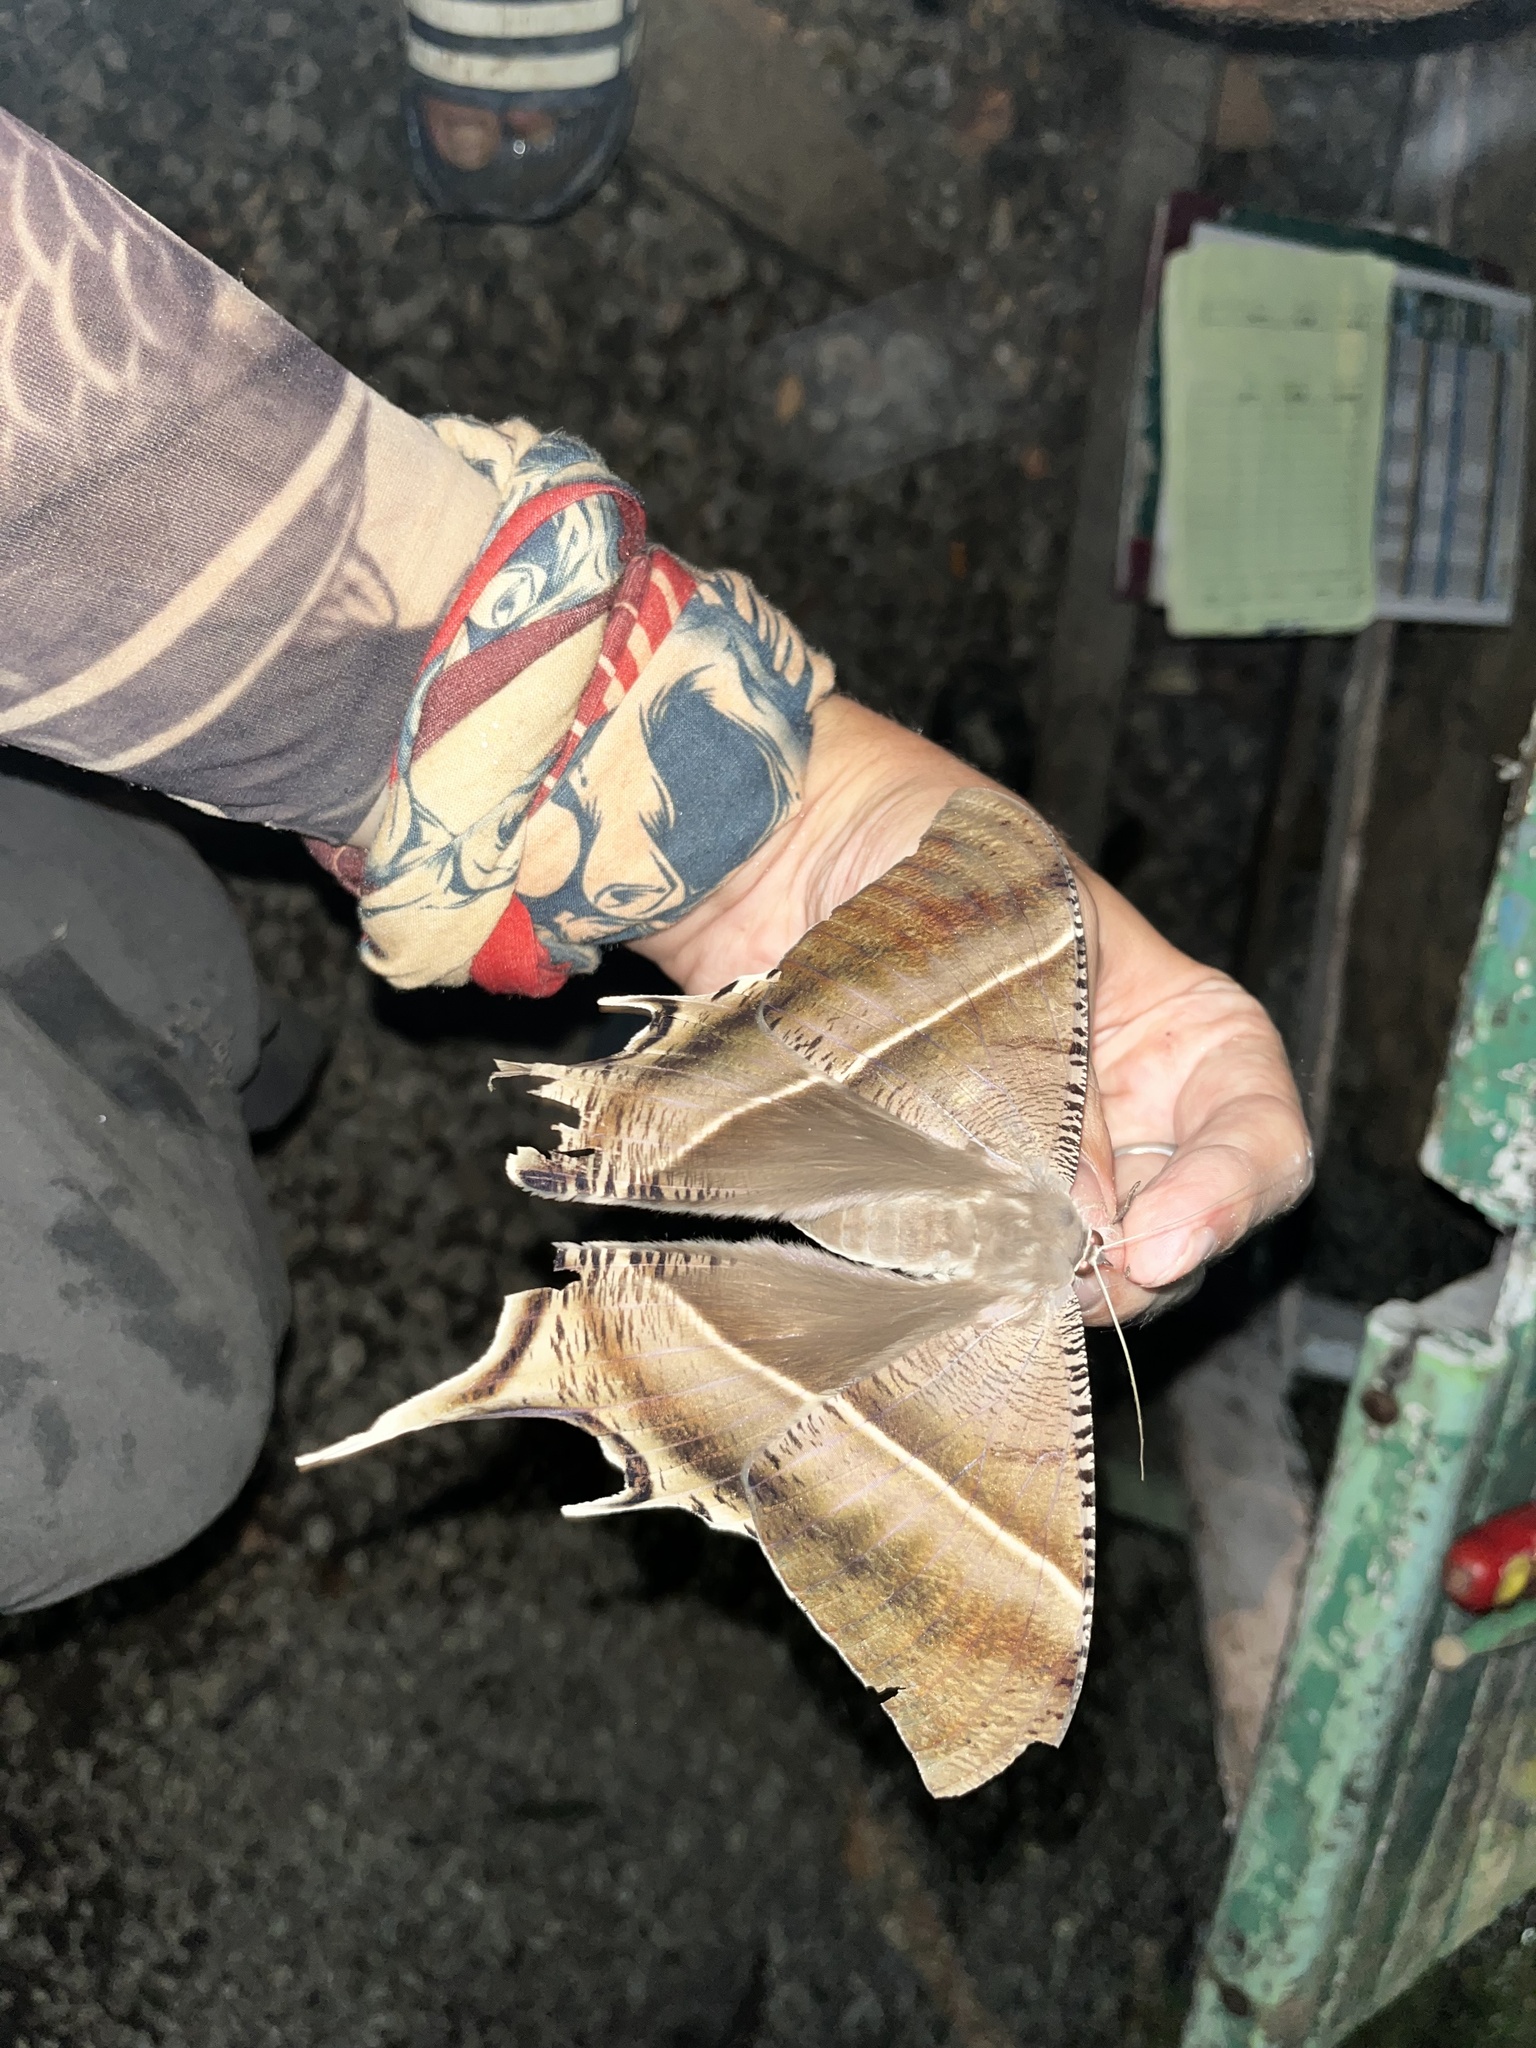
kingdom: Animalia
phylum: Arthropoda
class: Insecta
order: Lepidoptera
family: Uraniidae
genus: Lyssa
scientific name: Lyssa zampa
